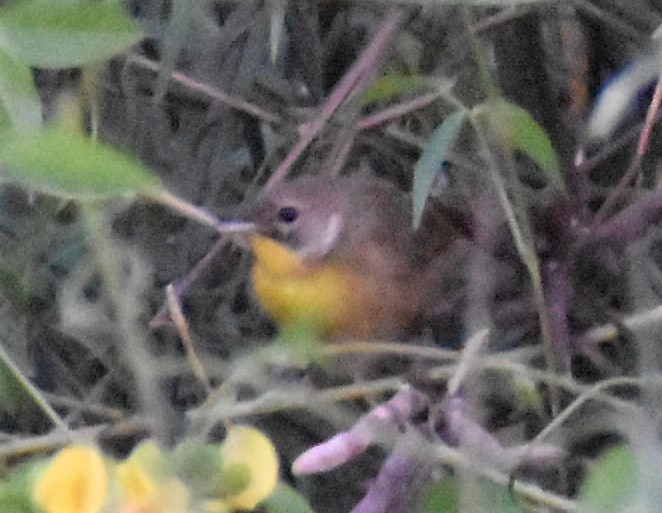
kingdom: Animalia
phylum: Chordata
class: Aves
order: Passeriformes
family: Parulidae
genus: Geothlypis
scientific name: Geothlypis trichas
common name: Common yellowthroat
